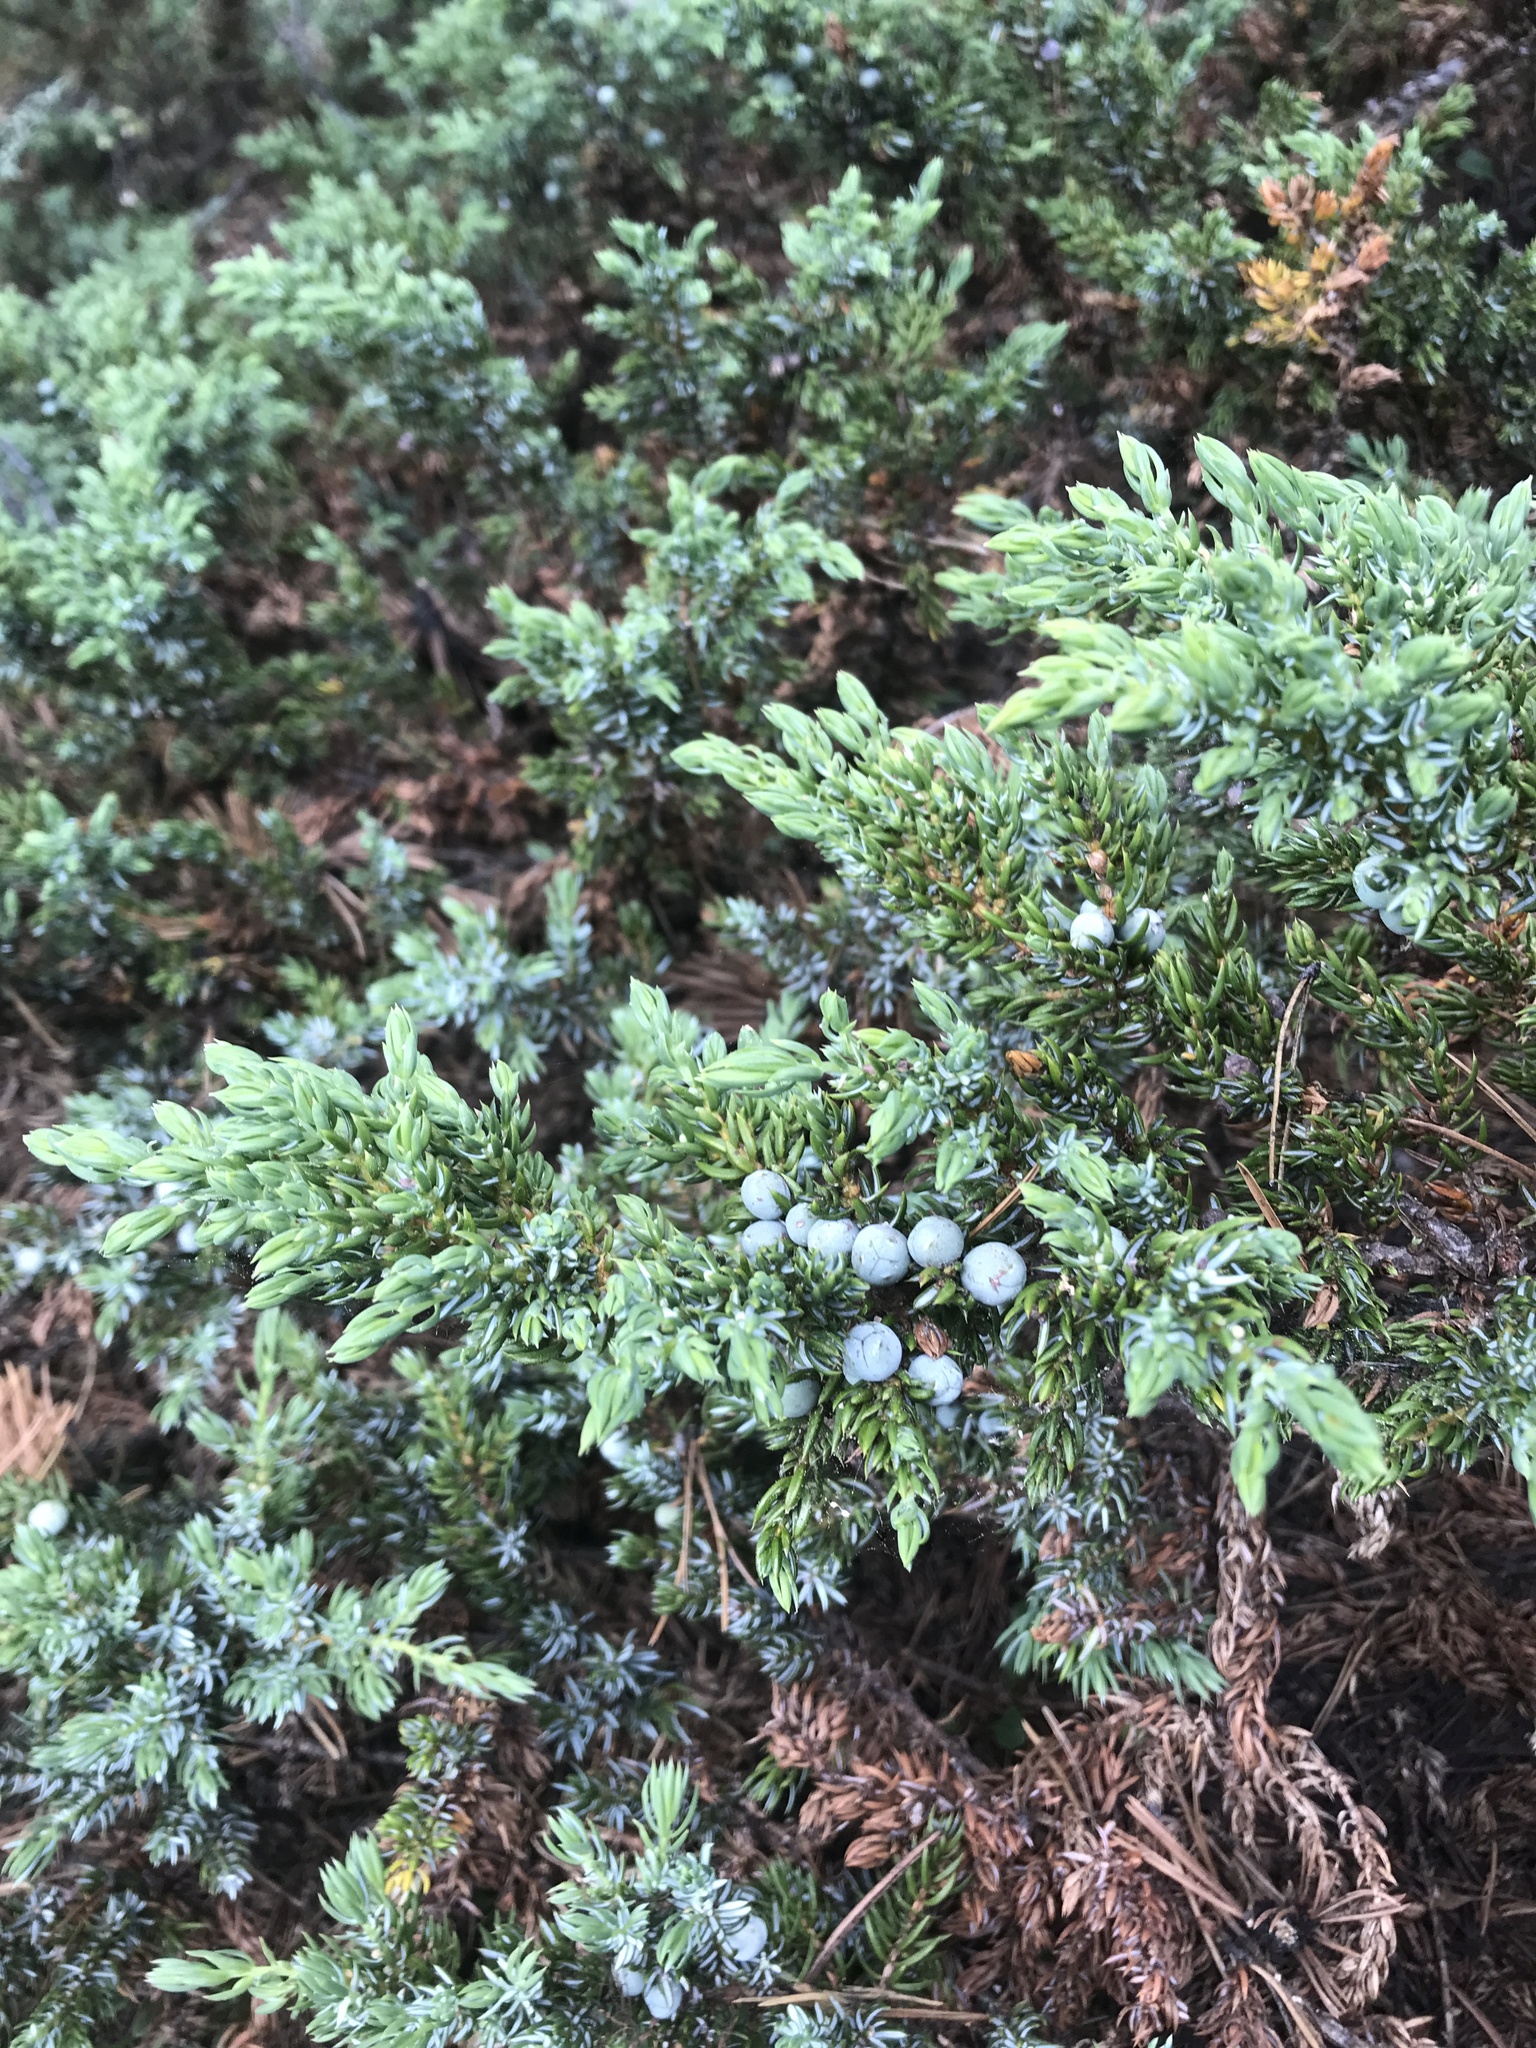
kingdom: Plantae
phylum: Tracheophyta
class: Pinopsida
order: Pinales
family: Cupressaceae
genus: Juniperus
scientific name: Juniperus communis
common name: Common juniper
